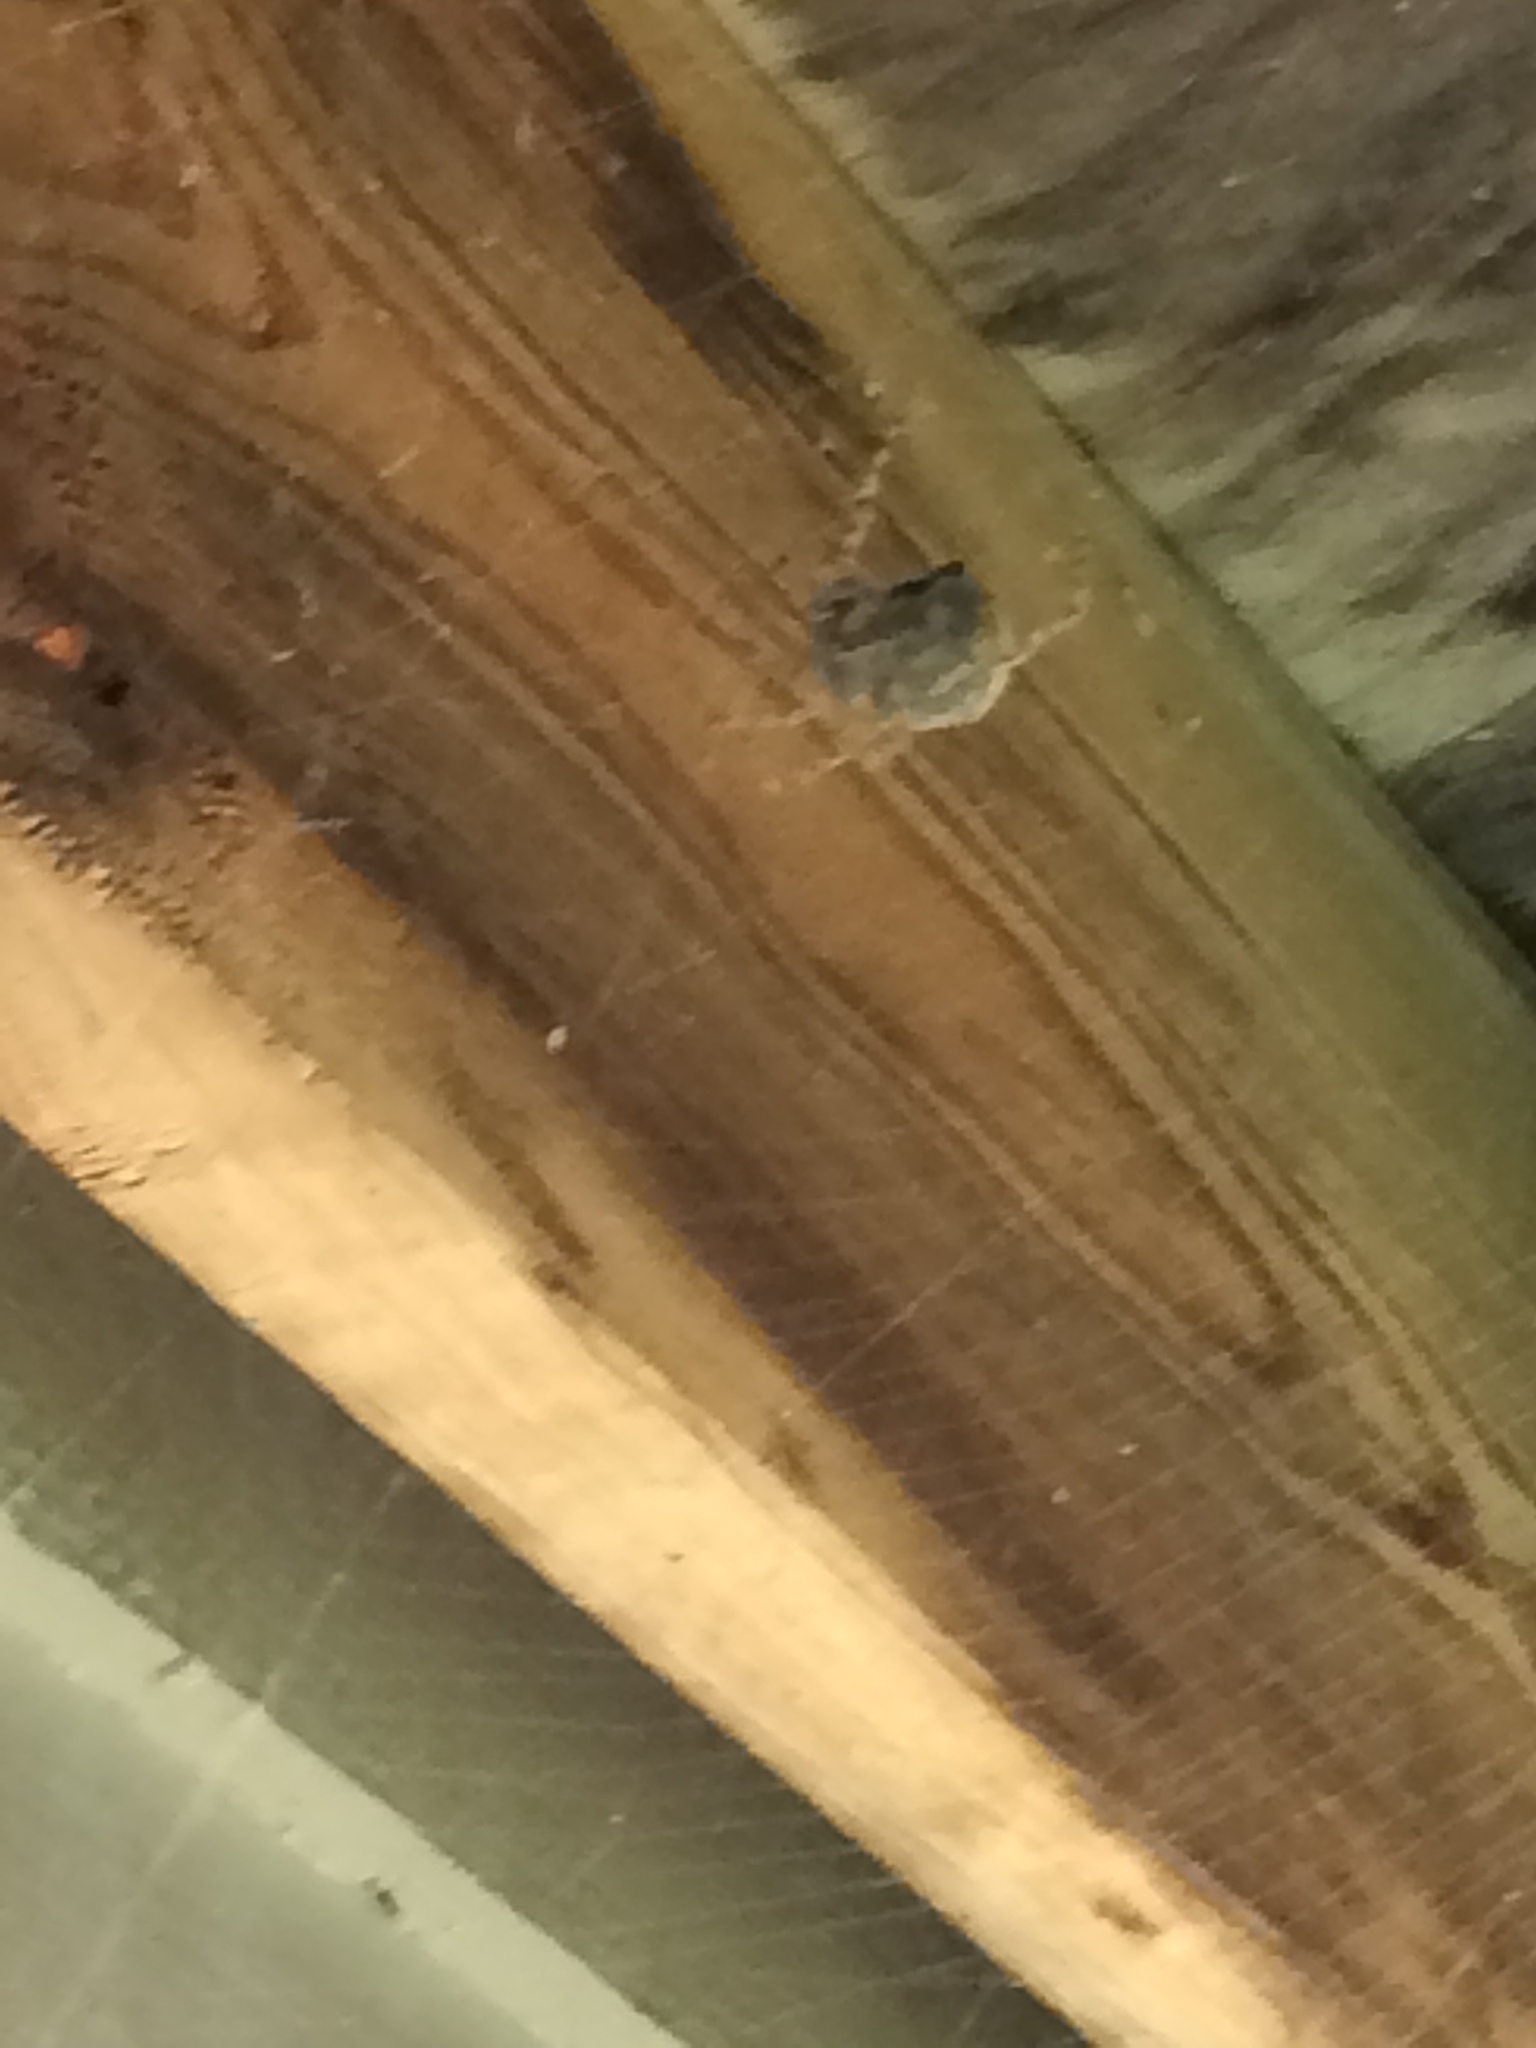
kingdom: Animalia
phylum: Arthropoda
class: Arachnida
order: Araneae
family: Araneidae
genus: Araneus
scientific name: Araneus cavaticus
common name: Barn orbweaver
